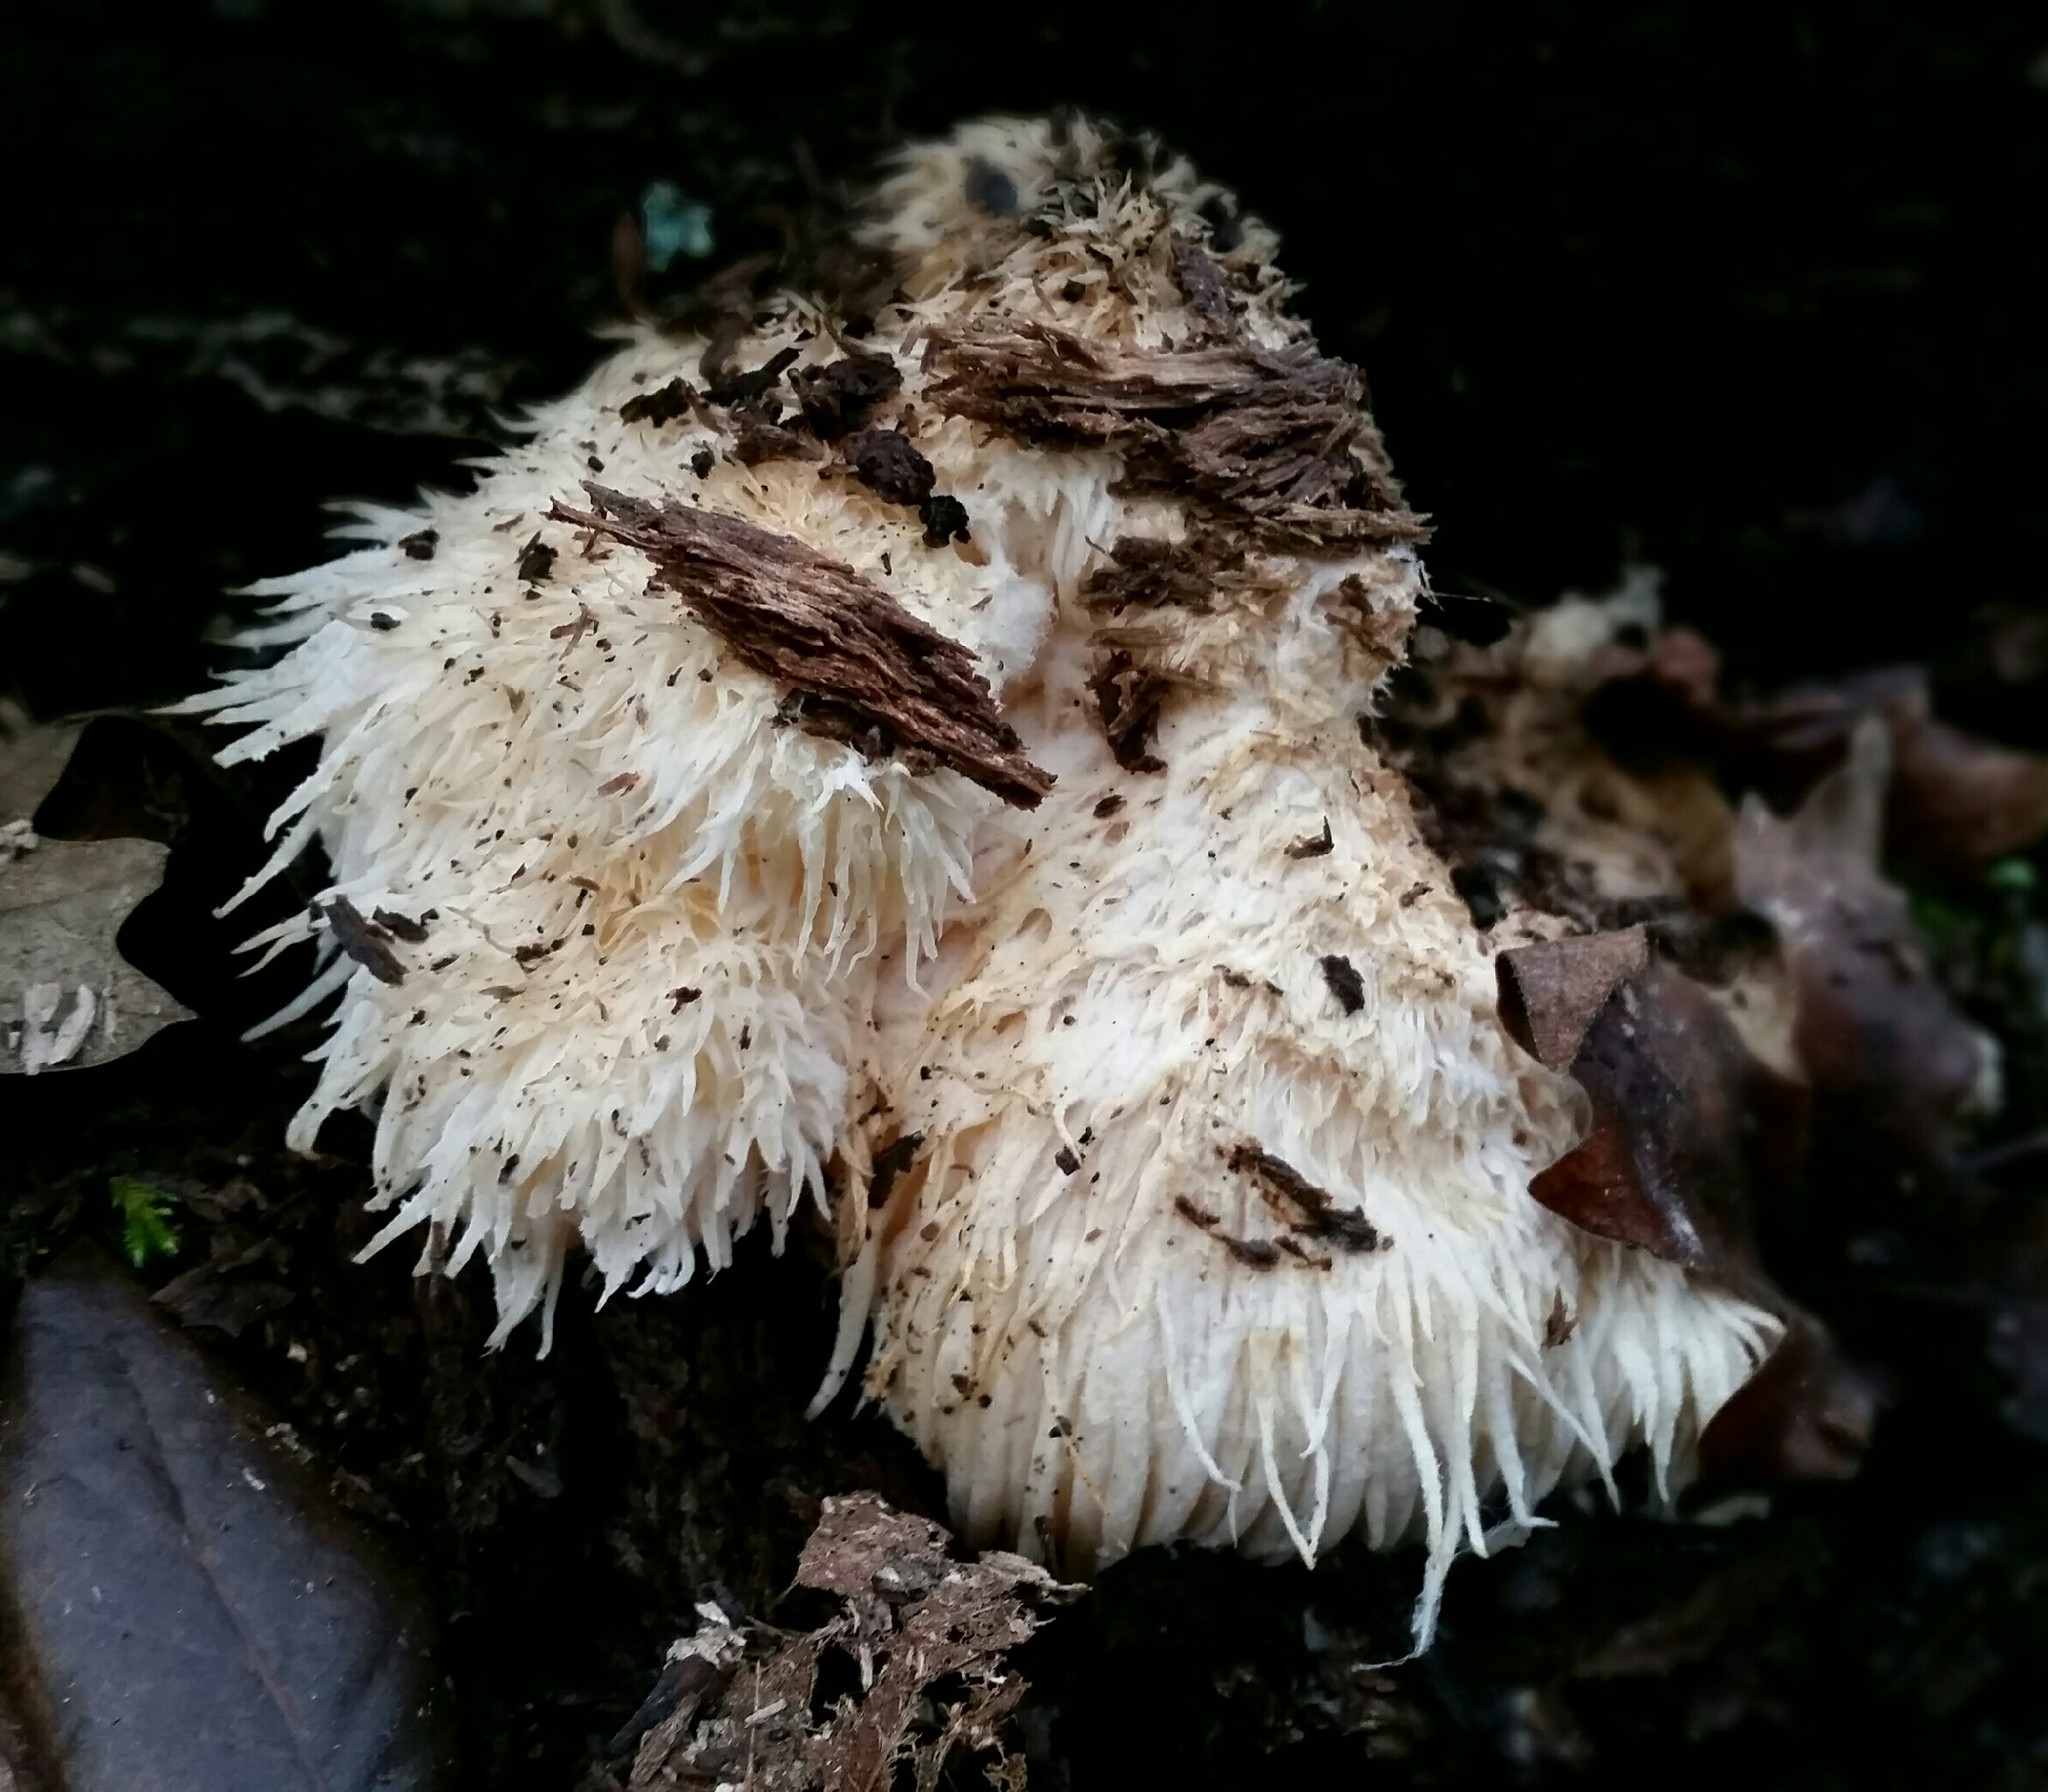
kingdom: Fungi
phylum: Basidiomycota
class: Agaricomycetes
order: Russulales
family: Hericiaceae
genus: Hericium
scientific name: Hericium erinaceus
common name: Bearded tooth
